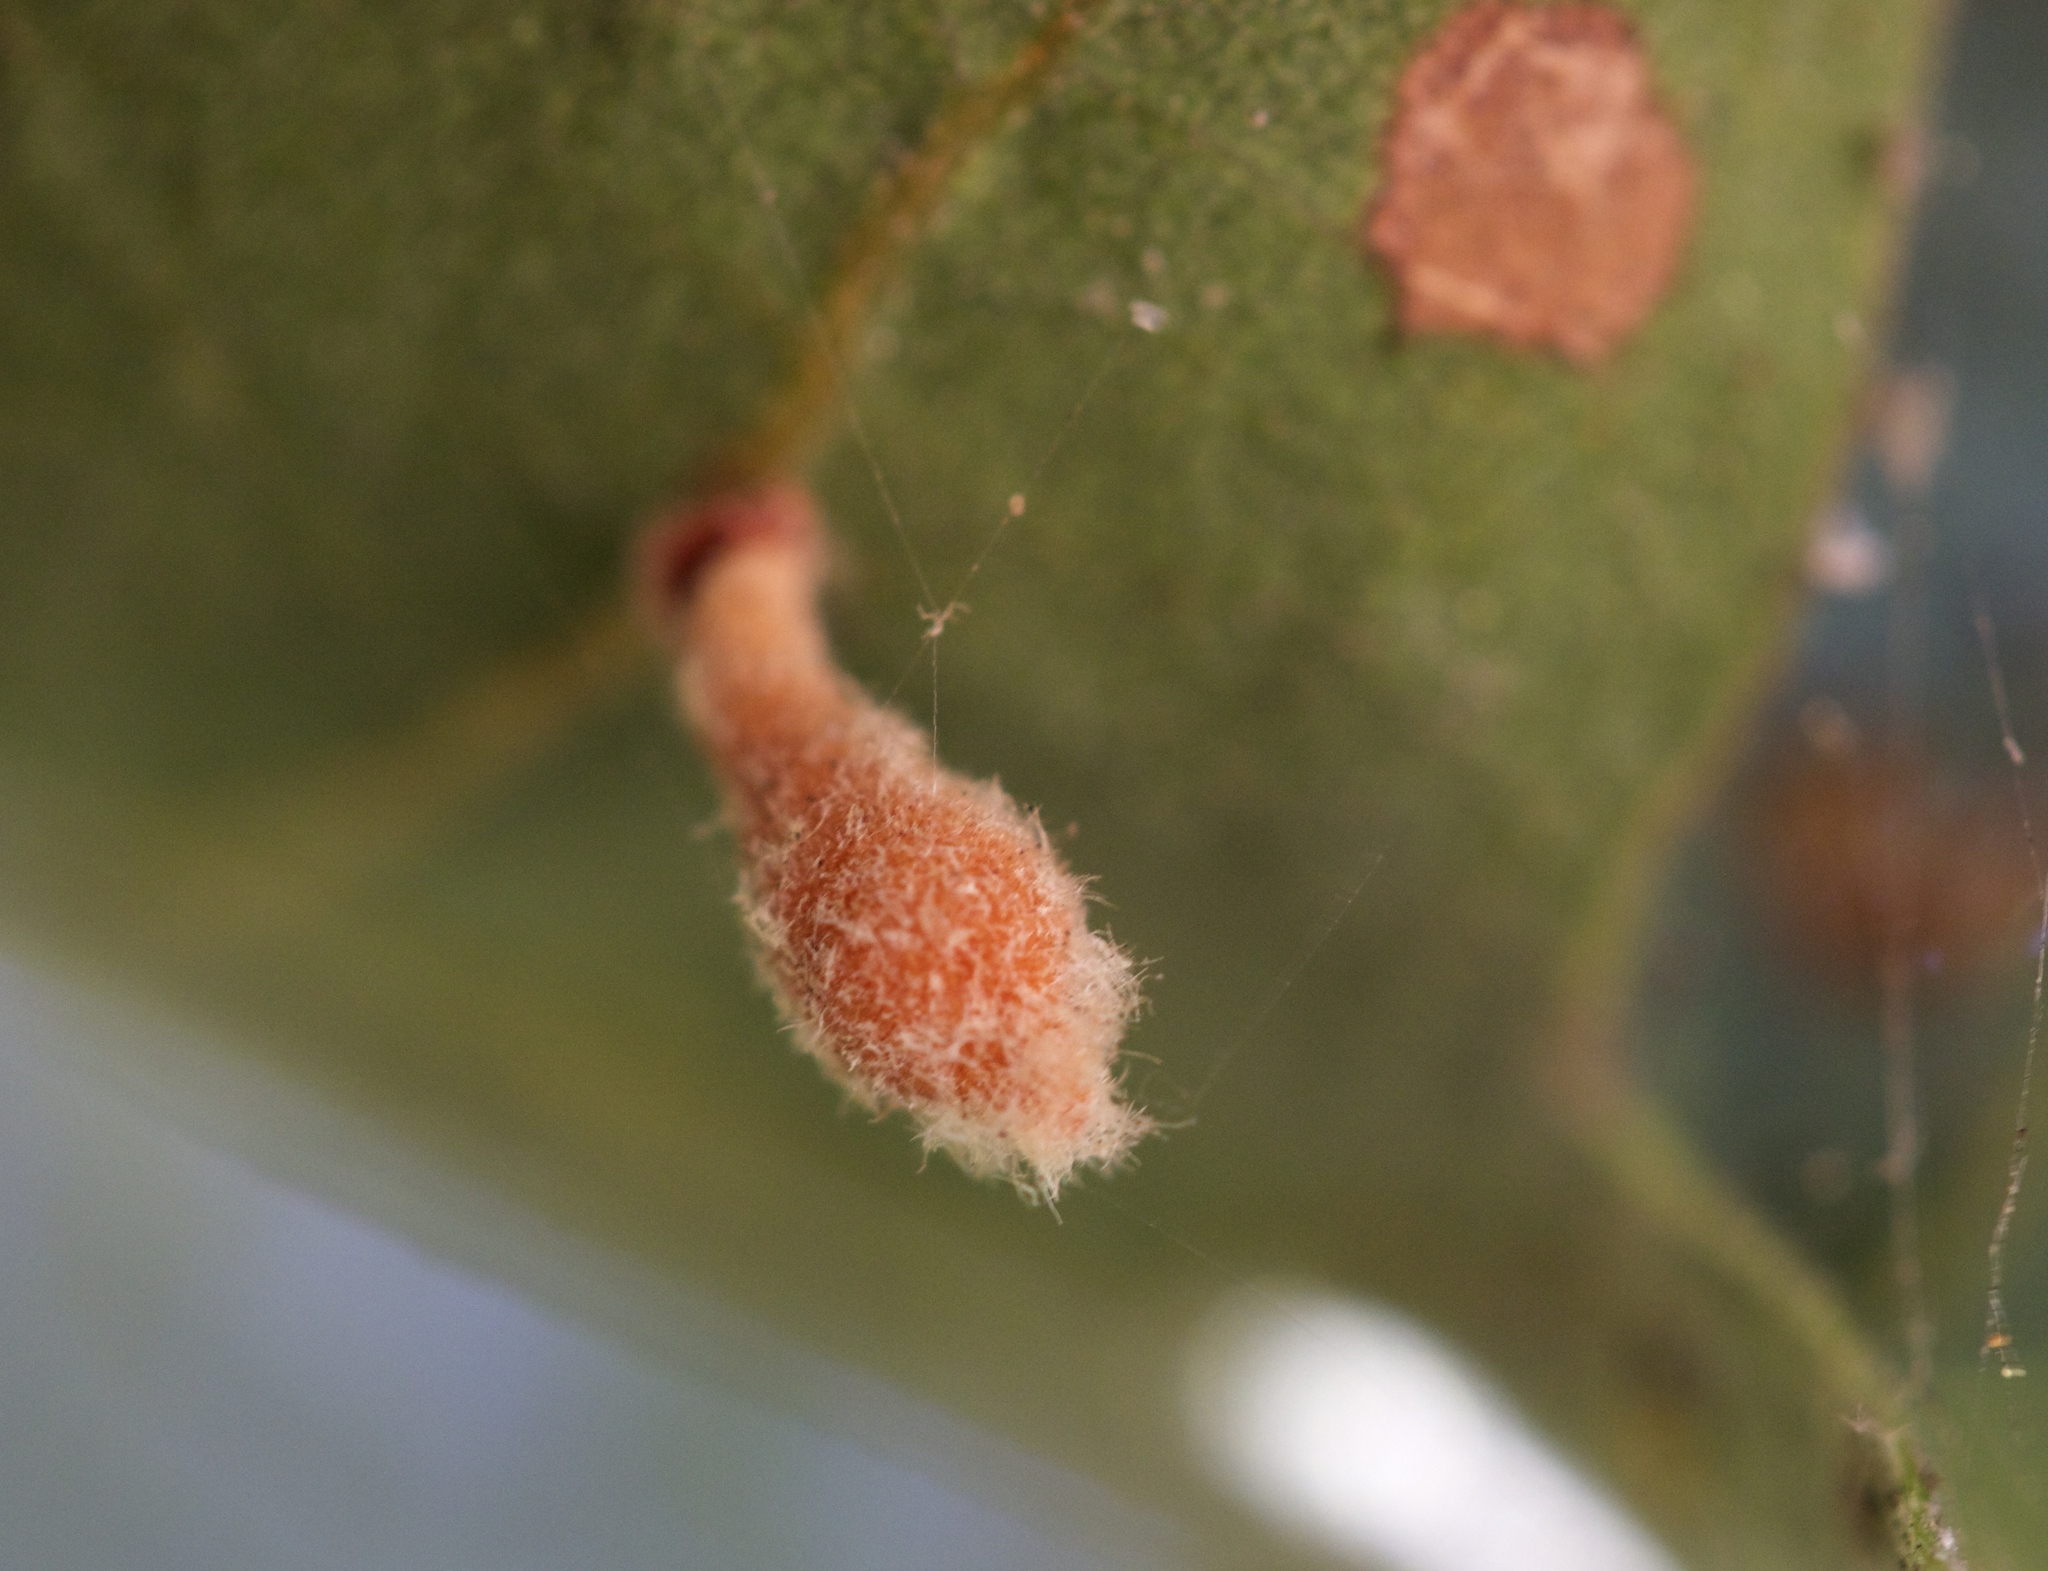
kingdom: Animalia
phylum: Arthropoda
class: Insecta
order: Hymenoptera
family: Cynipidae
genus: Atrusca
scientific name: Atrusca
